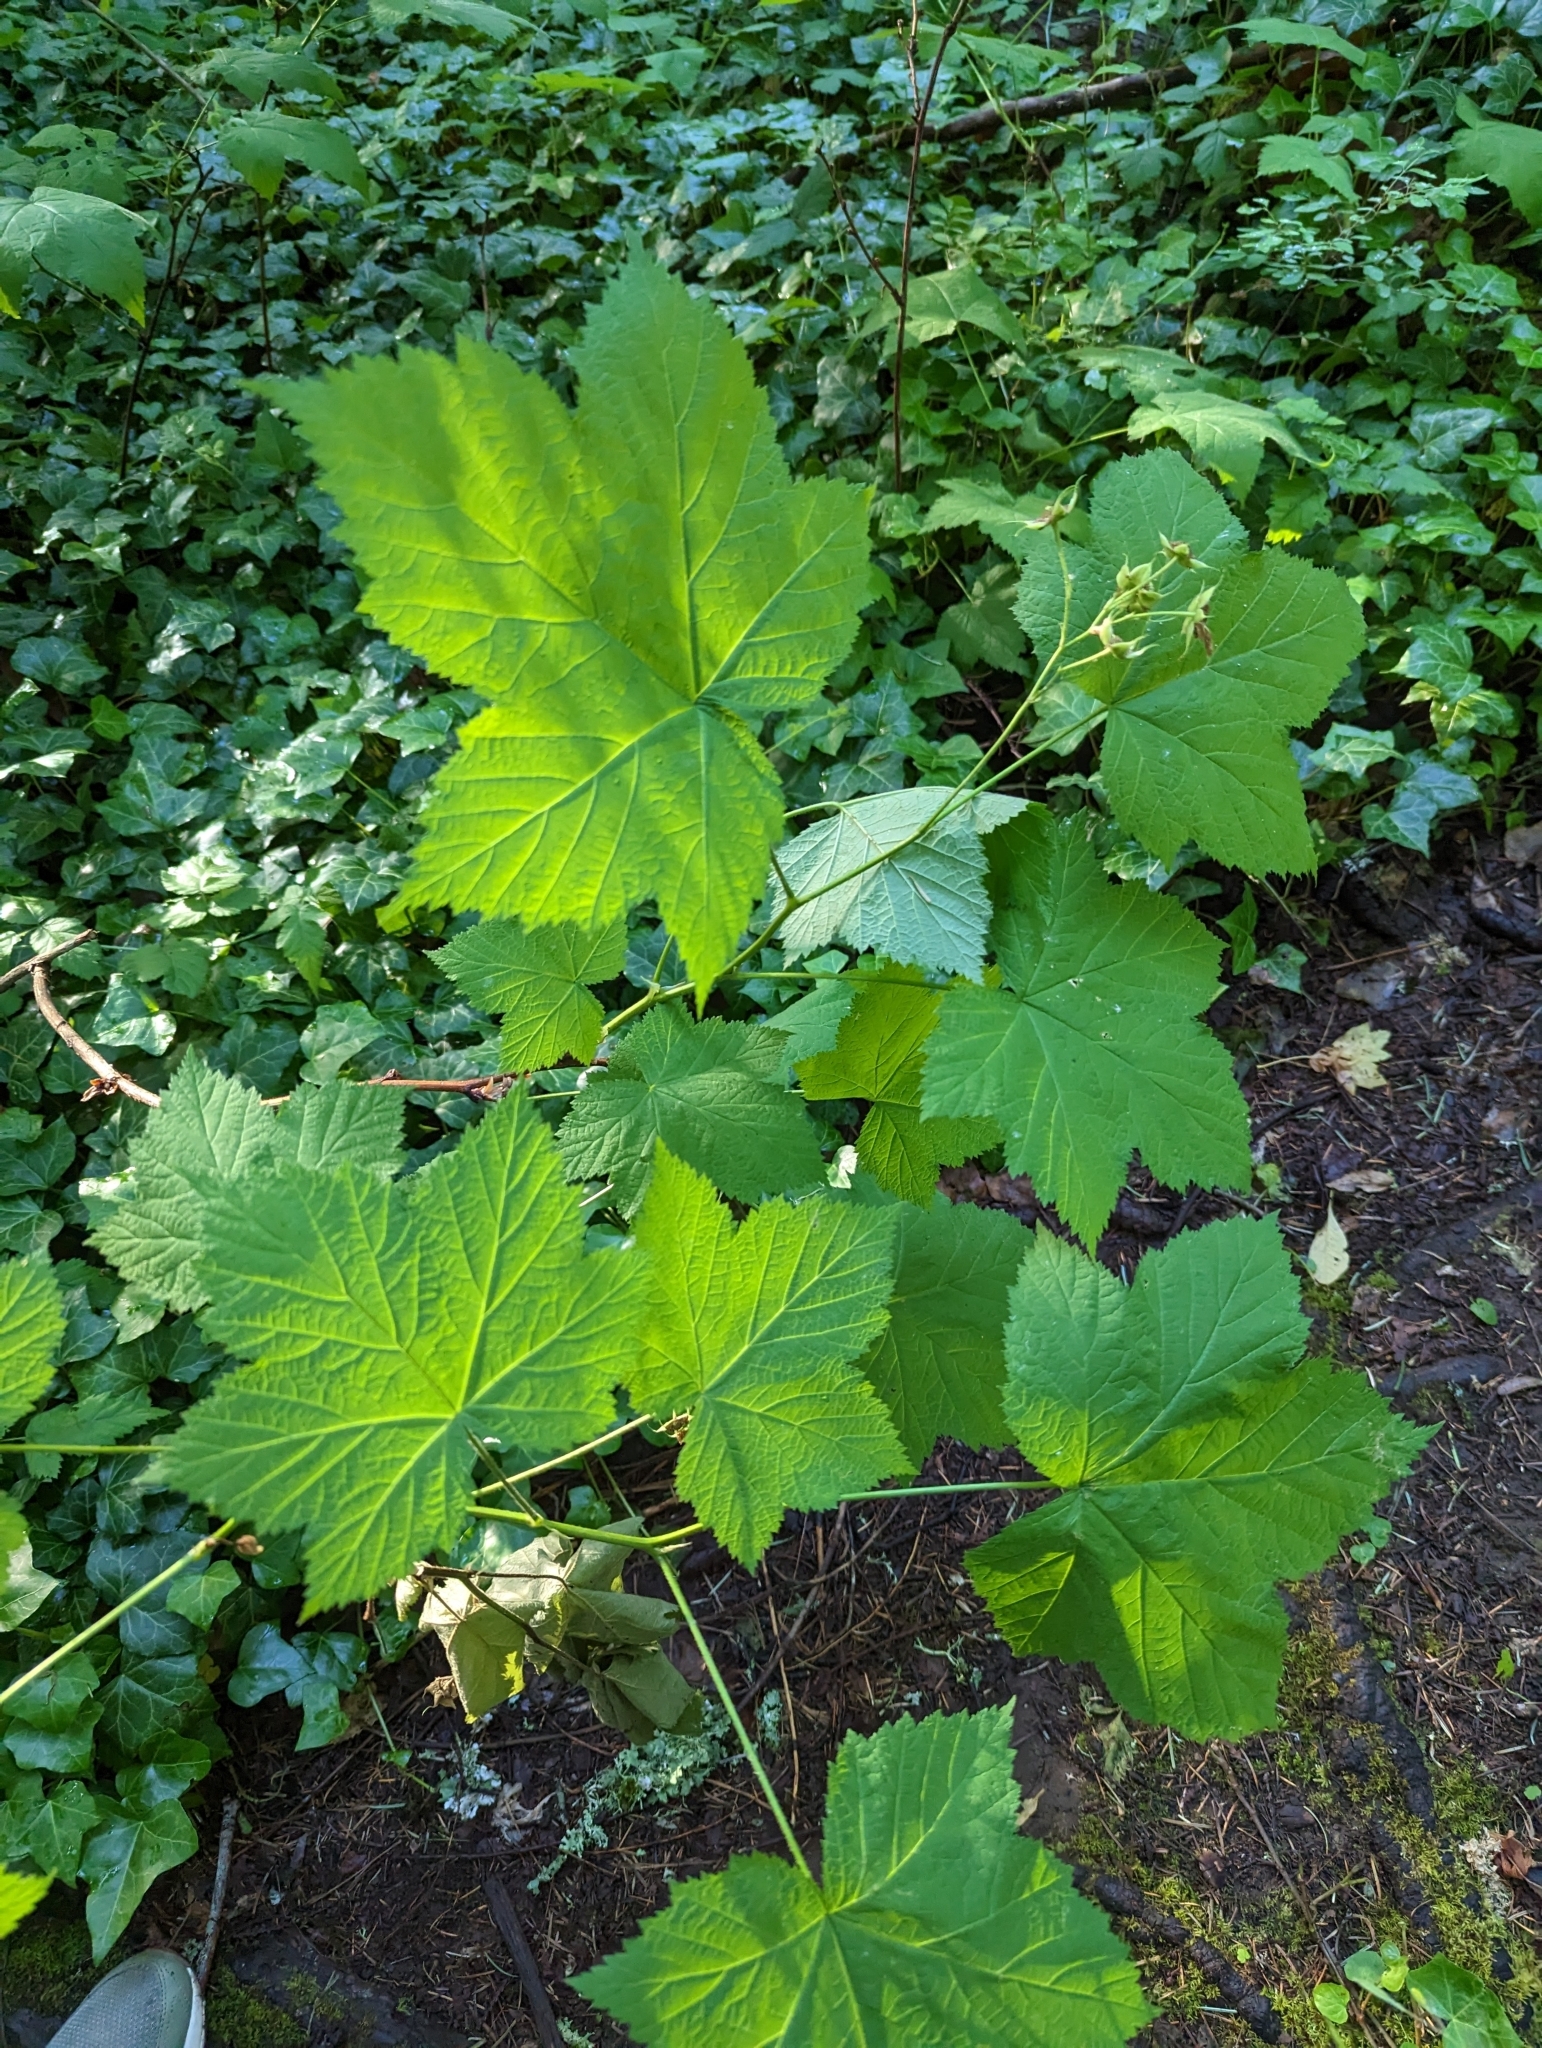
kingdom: Plantae
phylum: Tracheophyta
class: Magnoliopsida
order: Rosales
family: Rosaceae
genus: Rubus
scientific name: Rubus parviflorus
